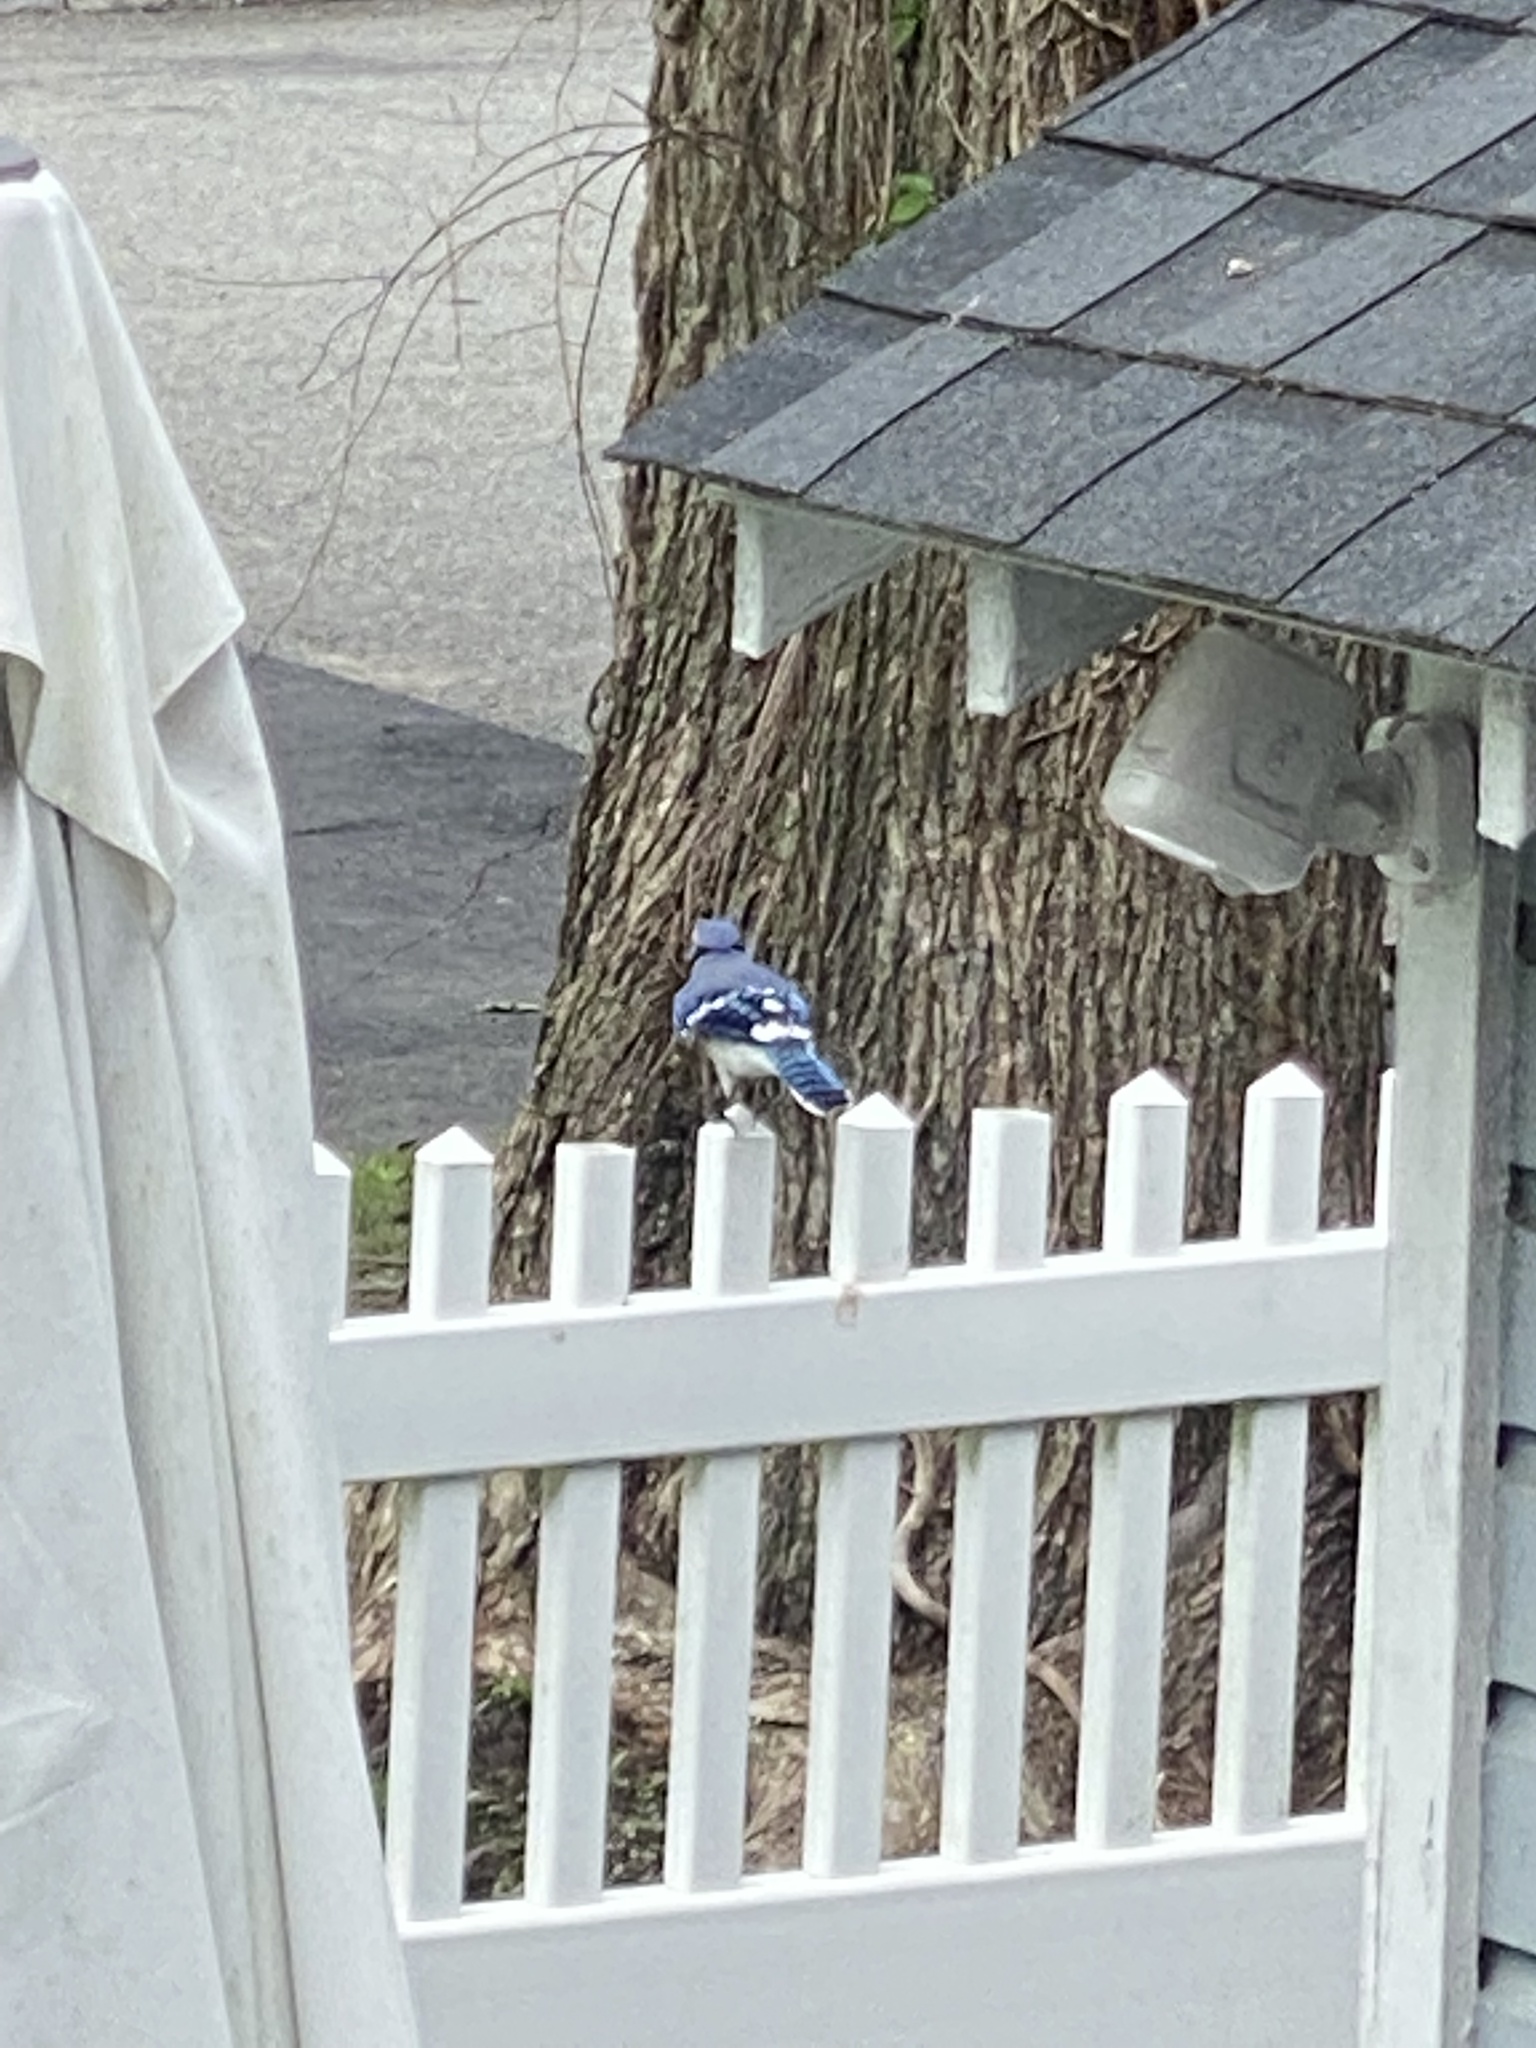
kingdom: Animalia
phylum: Chordata
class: Aves
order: Passeriformes
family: Corvidae
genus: Cyanocitta
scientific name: Cyanocitta cristata
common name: Blue jay
